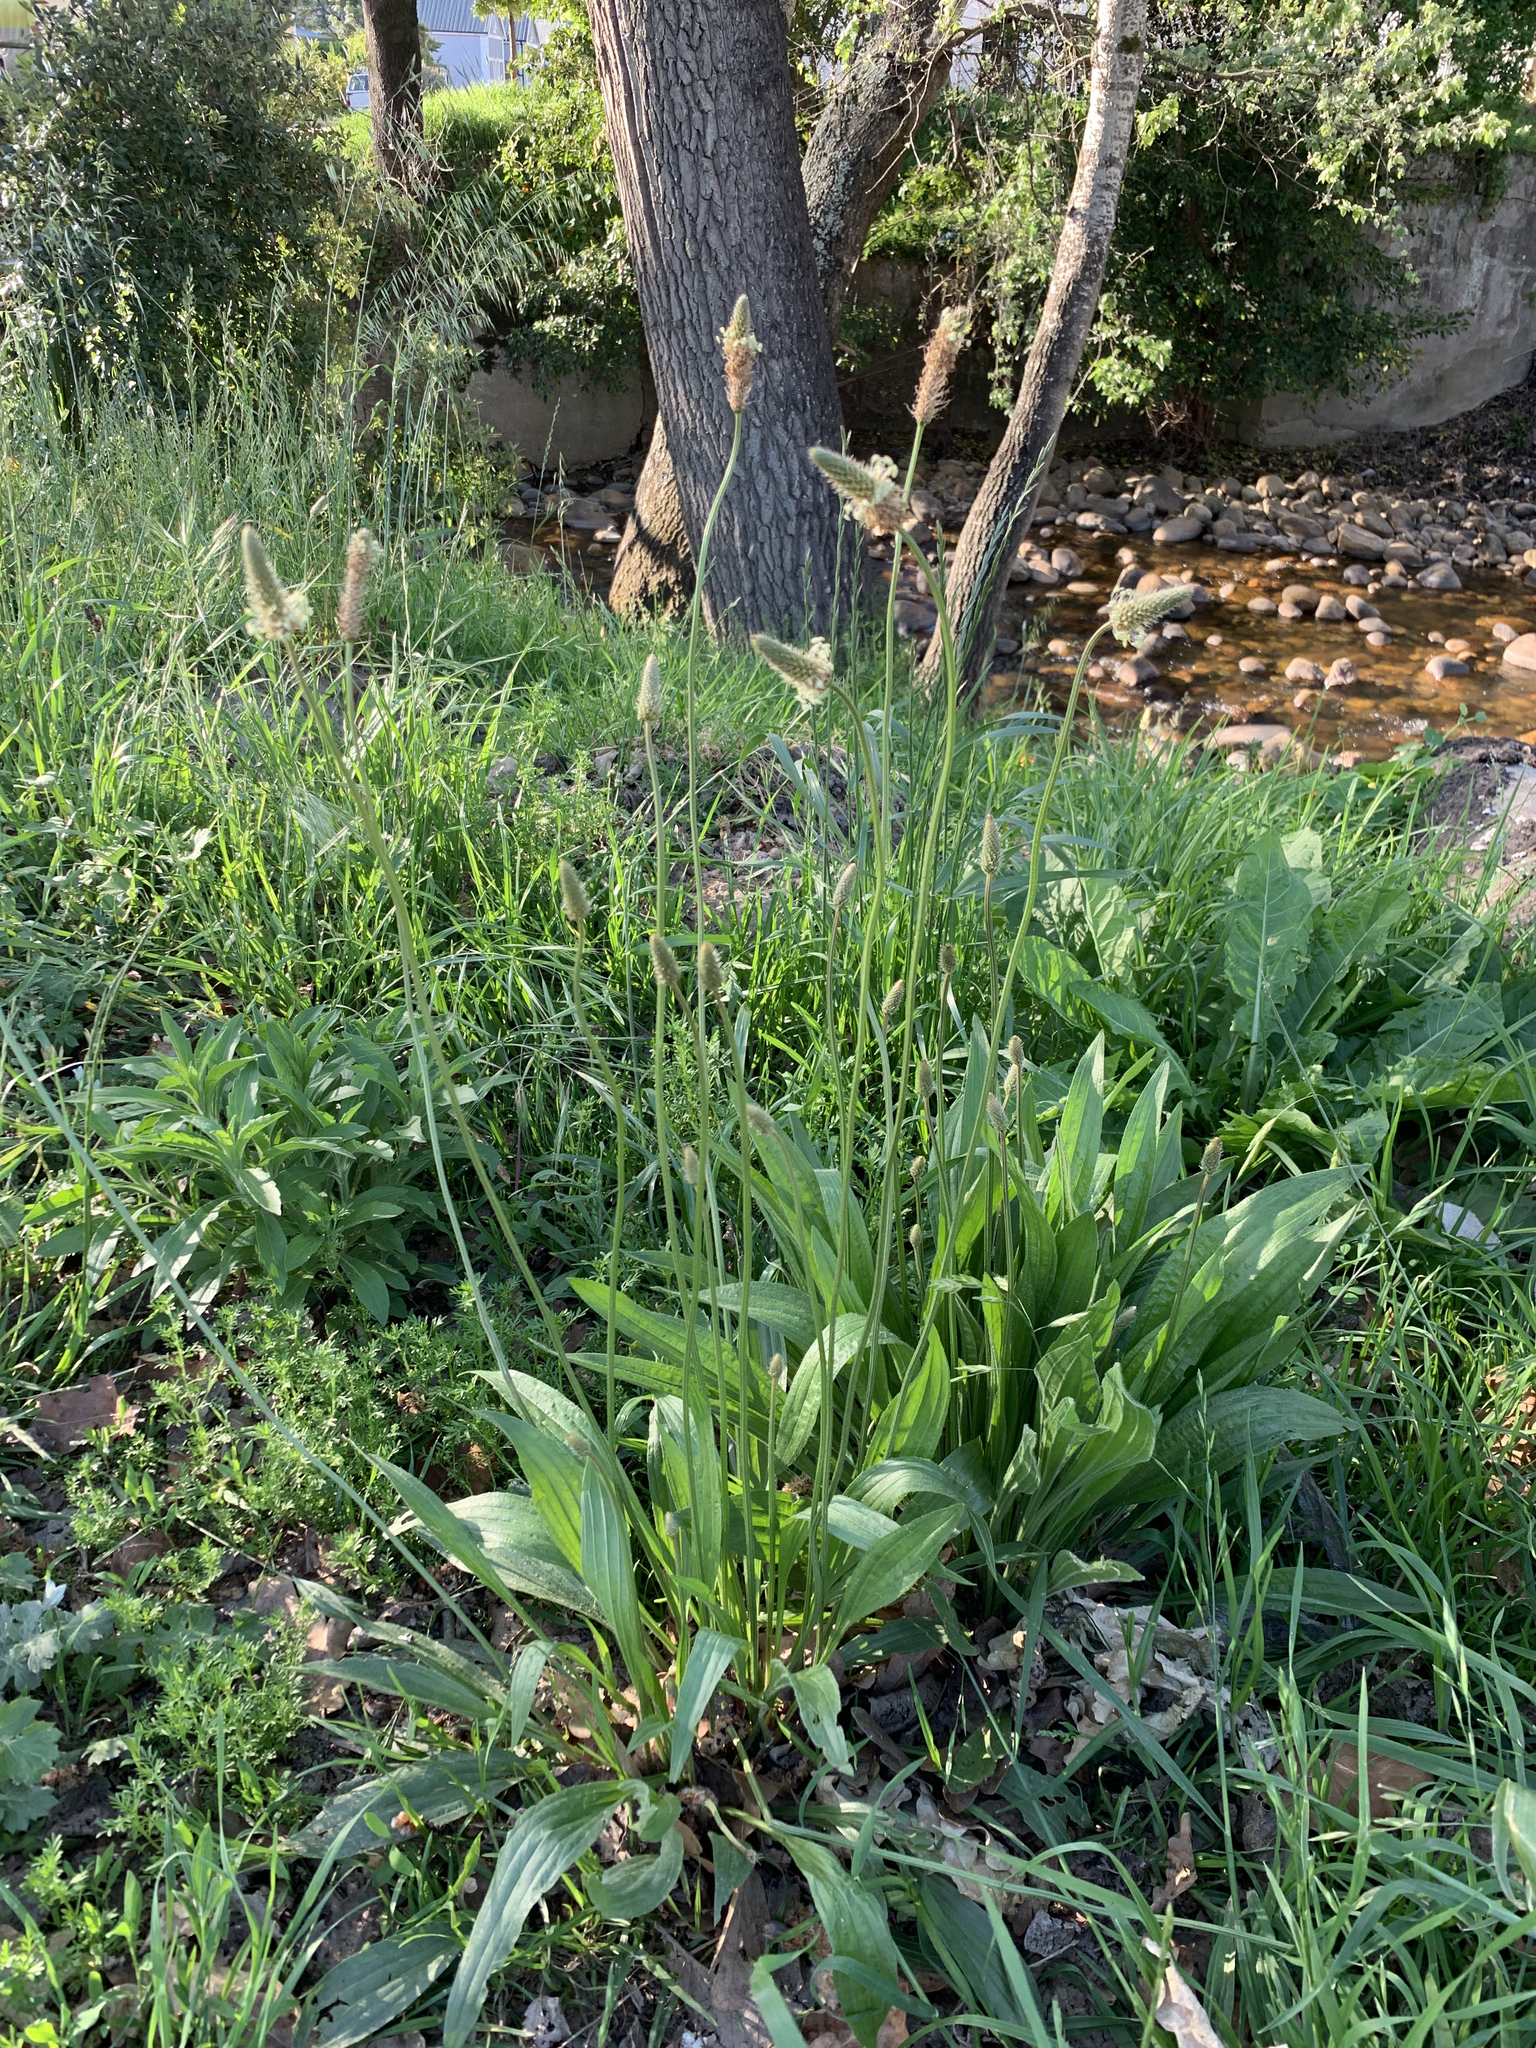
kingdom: Plantae
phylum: Tracheophyta
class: Magnoliopsida
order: Lamiales
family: Plantaginaceae
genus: Plantago
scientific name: Plantago lanceolata
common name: Ribwort plantain
